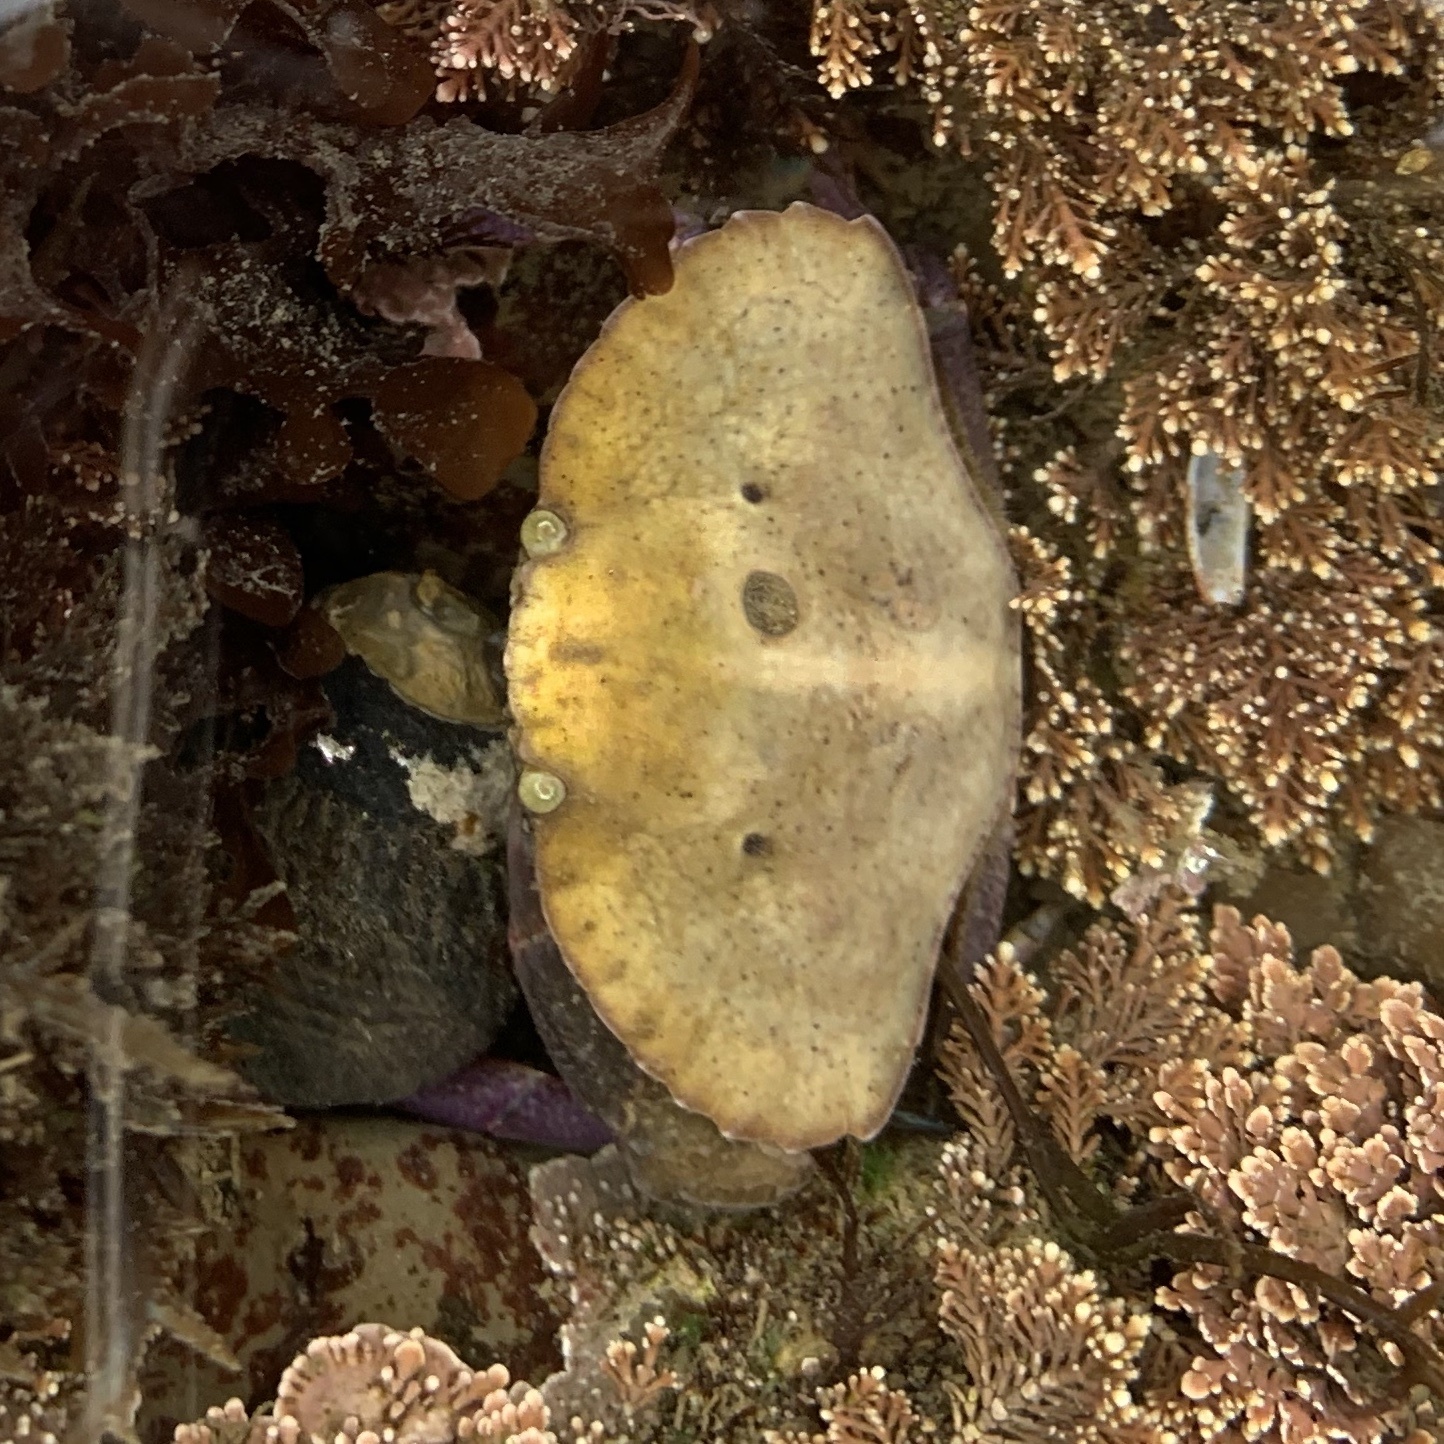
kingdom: Animalia
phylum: Arthropoda
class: Malacostraca
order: Decapoda
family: Cancridae
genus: Cancer
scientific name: Cancer productus
